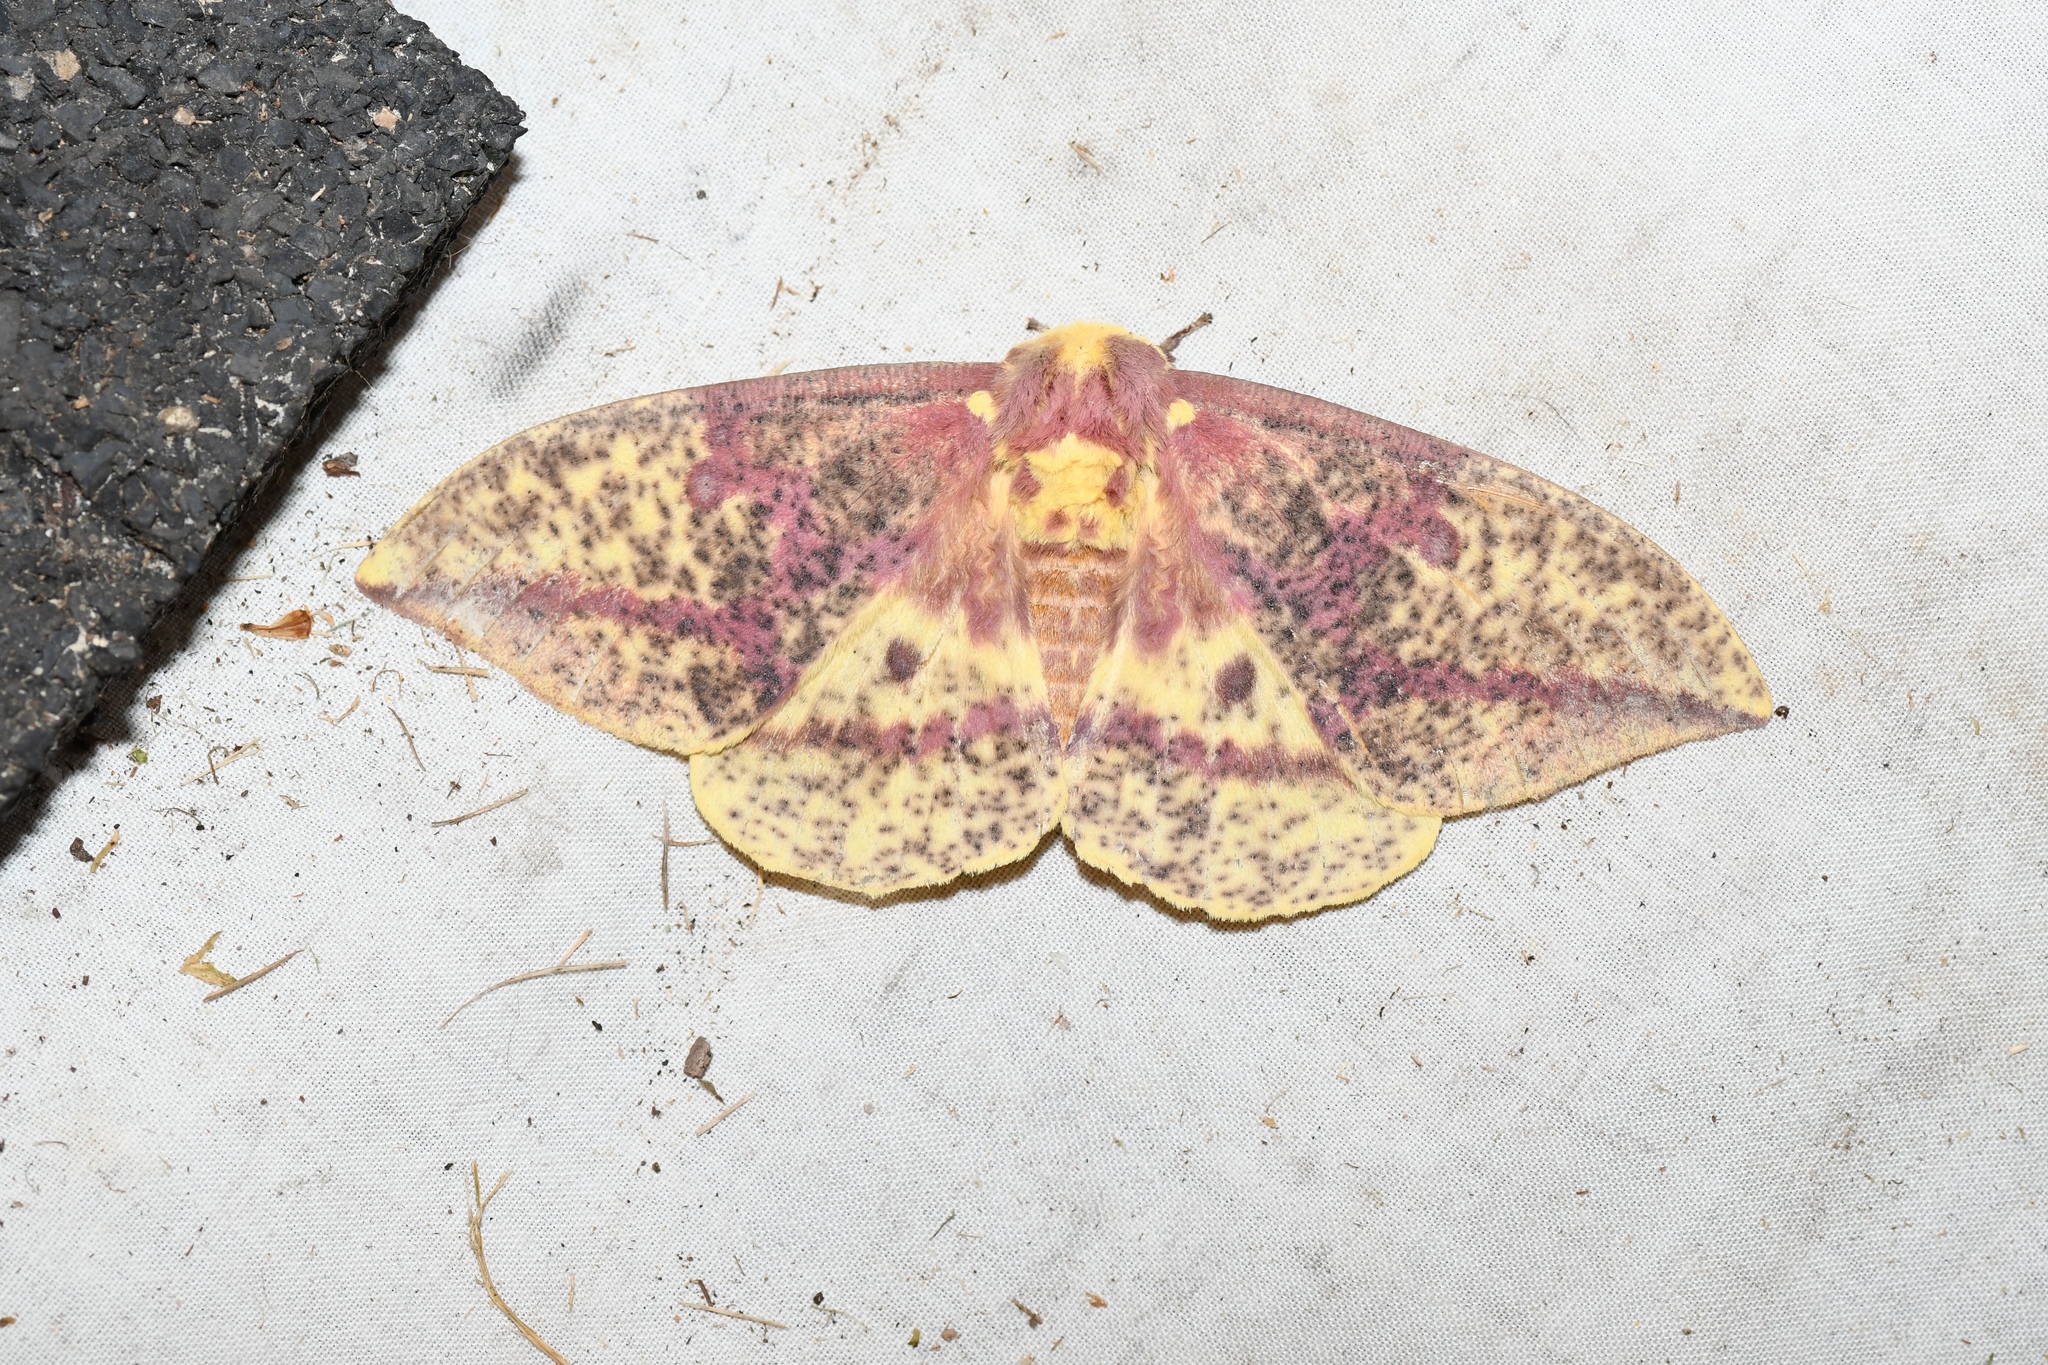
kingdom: Animalia
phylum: Arthropoda
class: Insecta
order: Lepidoptera
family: Saturniidae
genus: Eacles
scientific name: Eacles
